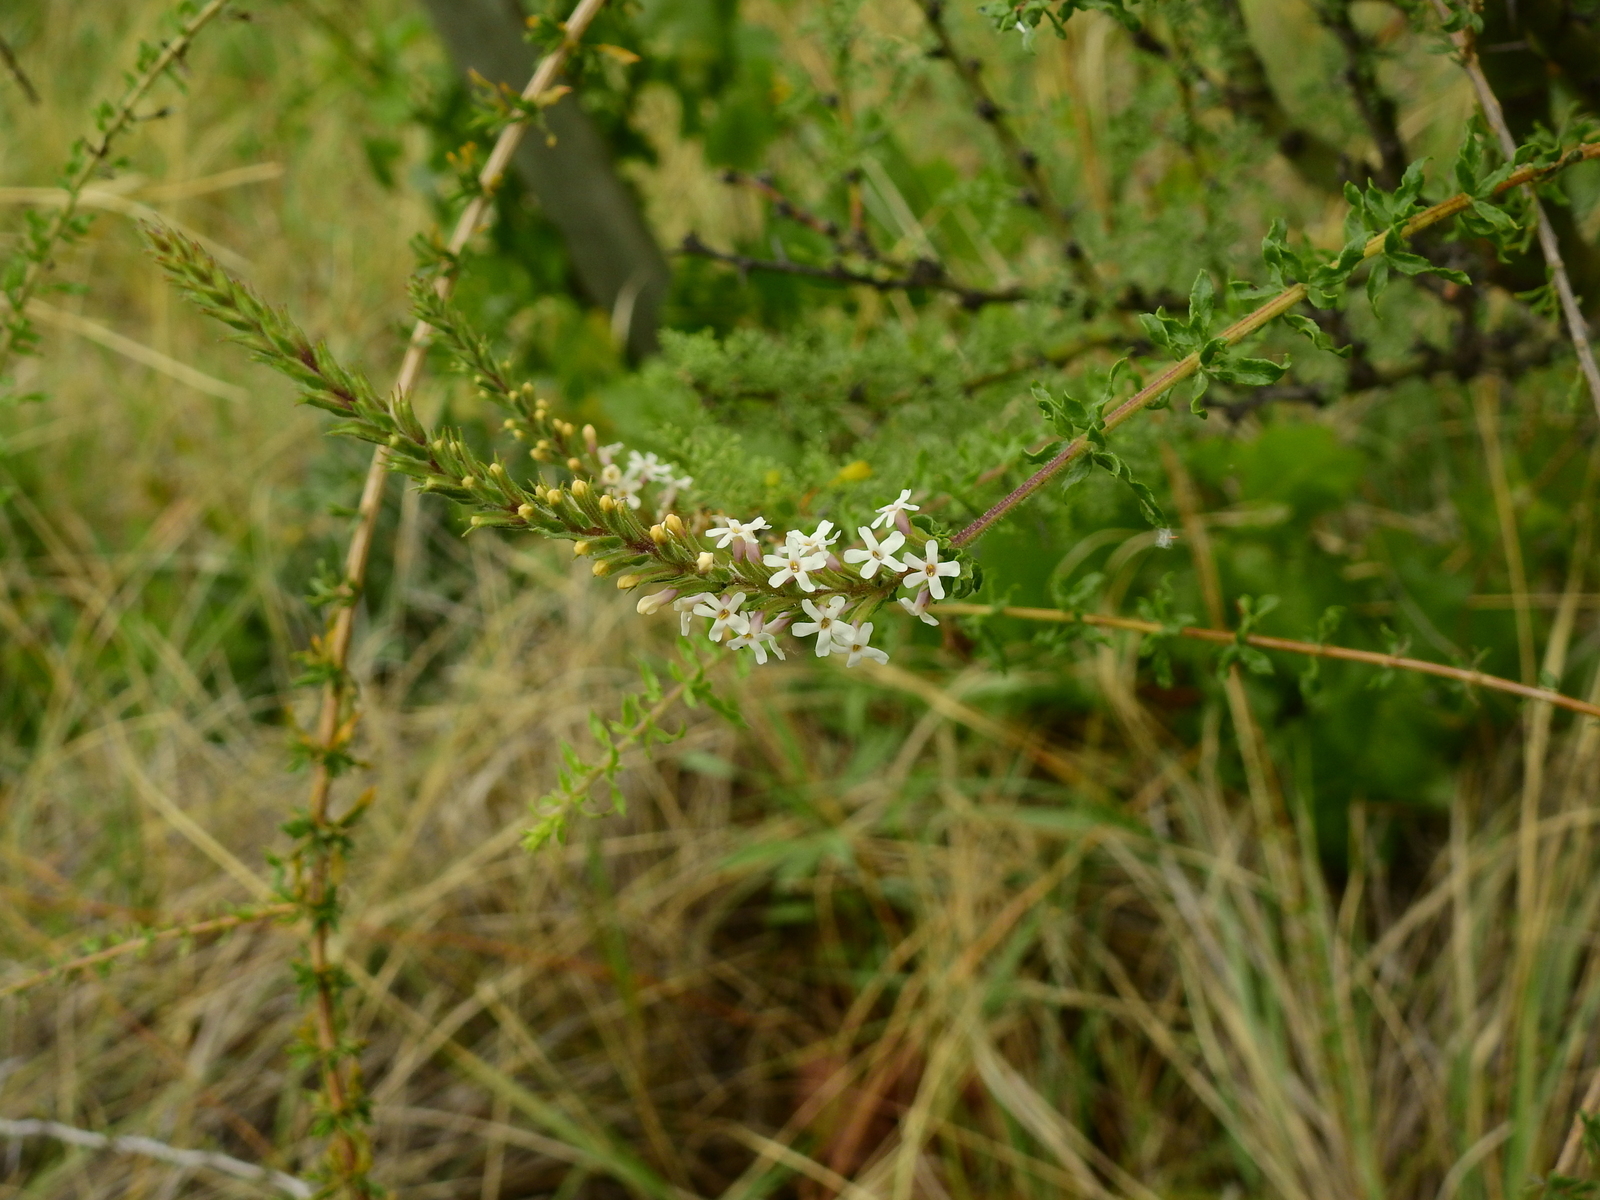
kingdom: Plantae
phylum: Tracheophyta
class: Magnoliopsida
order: Lamiales
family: Verbenaceae
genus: Mulguraea
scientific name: Mulguraea aspera
